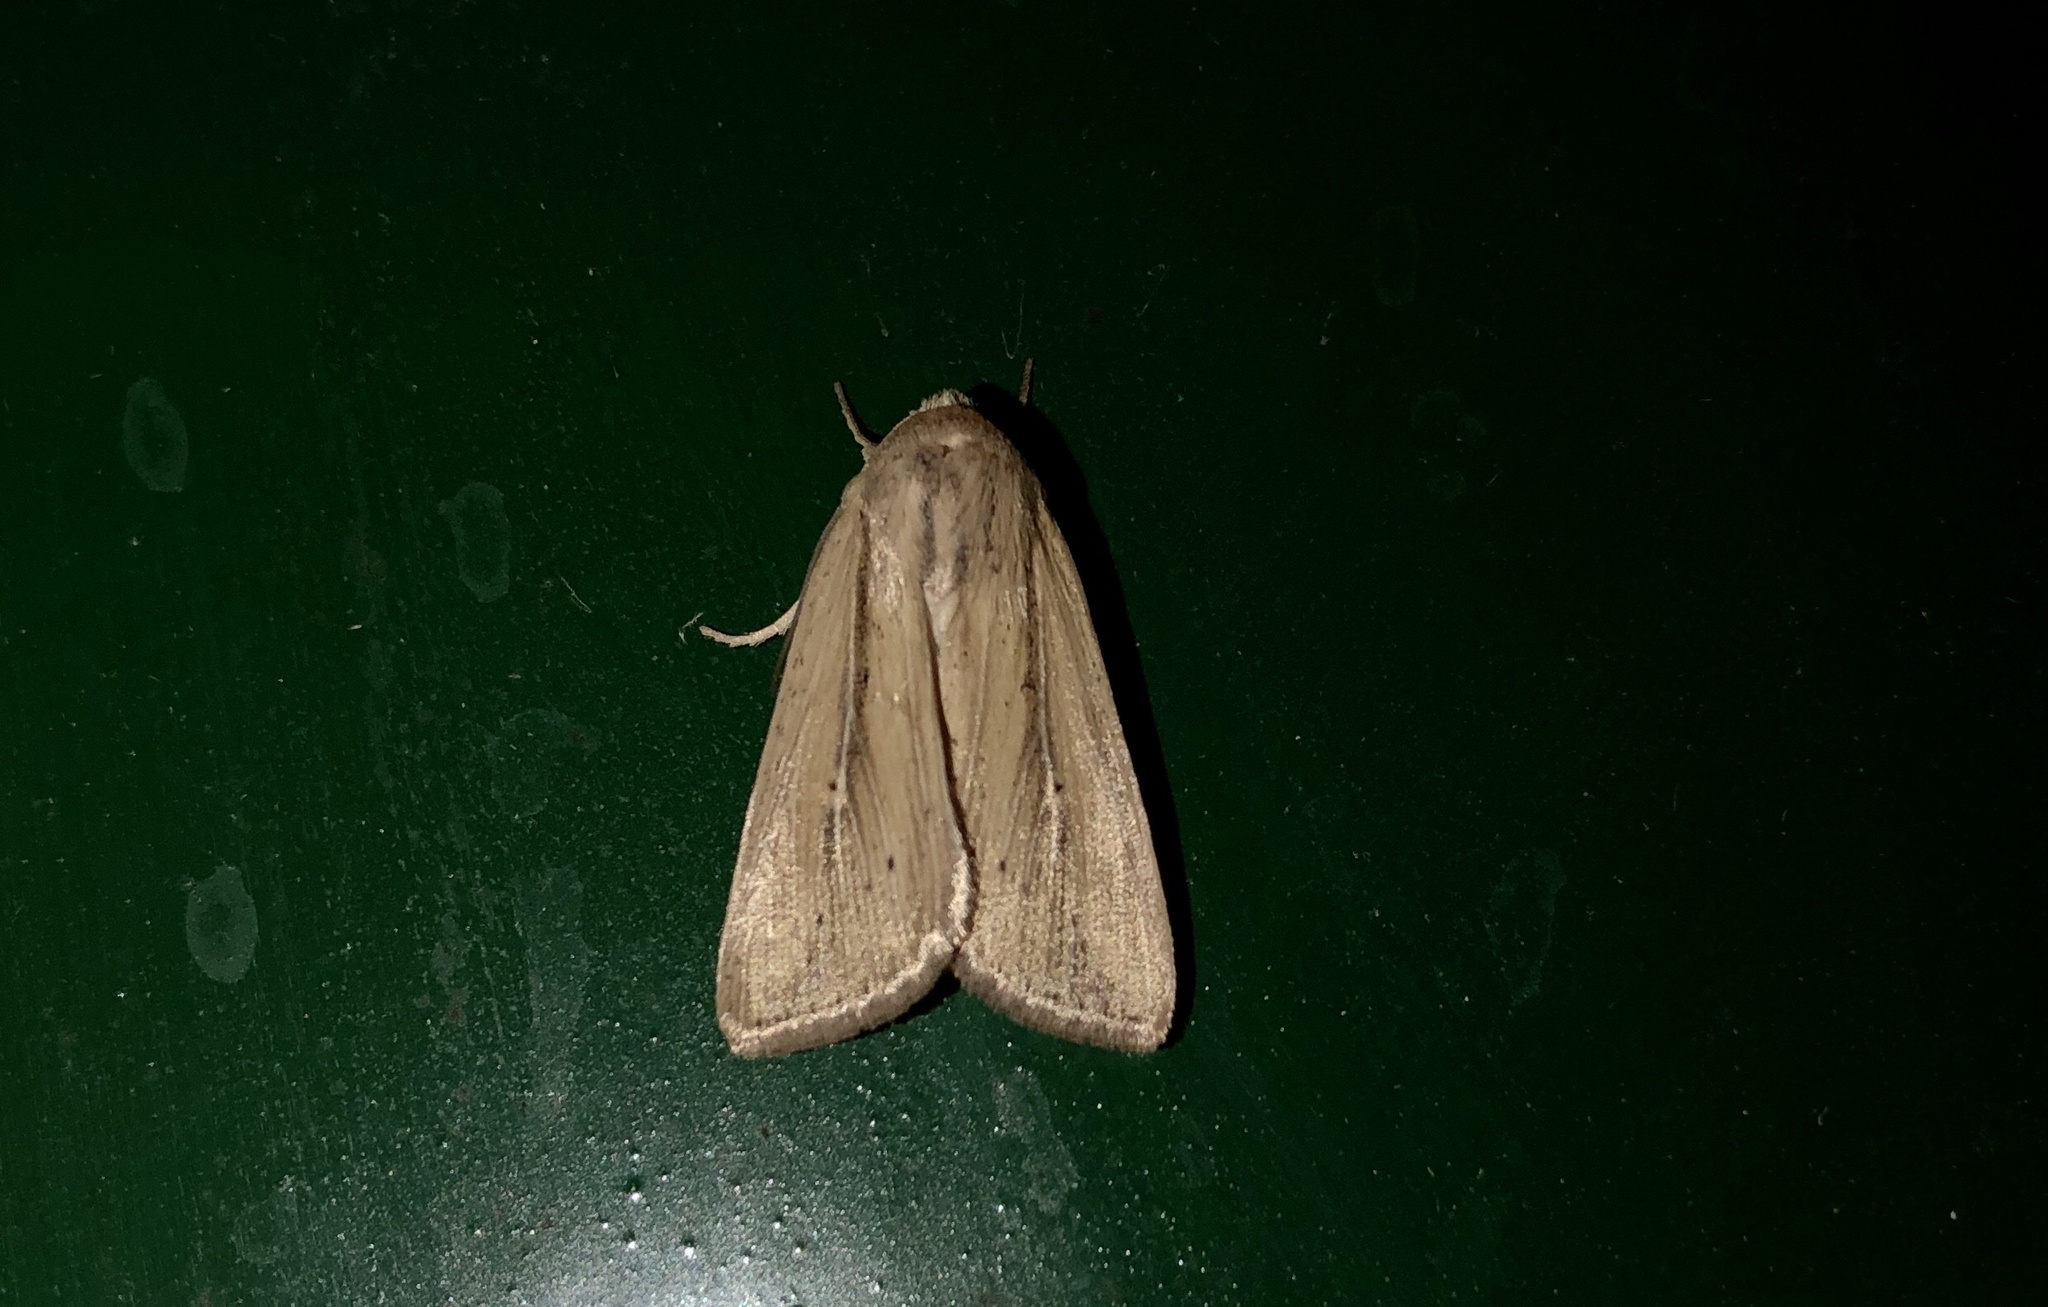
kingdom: Animalia
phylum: Arthropoda
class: Insecta
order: Lepidoptera
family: Noctuidae
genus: Mythimna
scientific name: Mythimna oxygala
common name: Lesser wainscot
